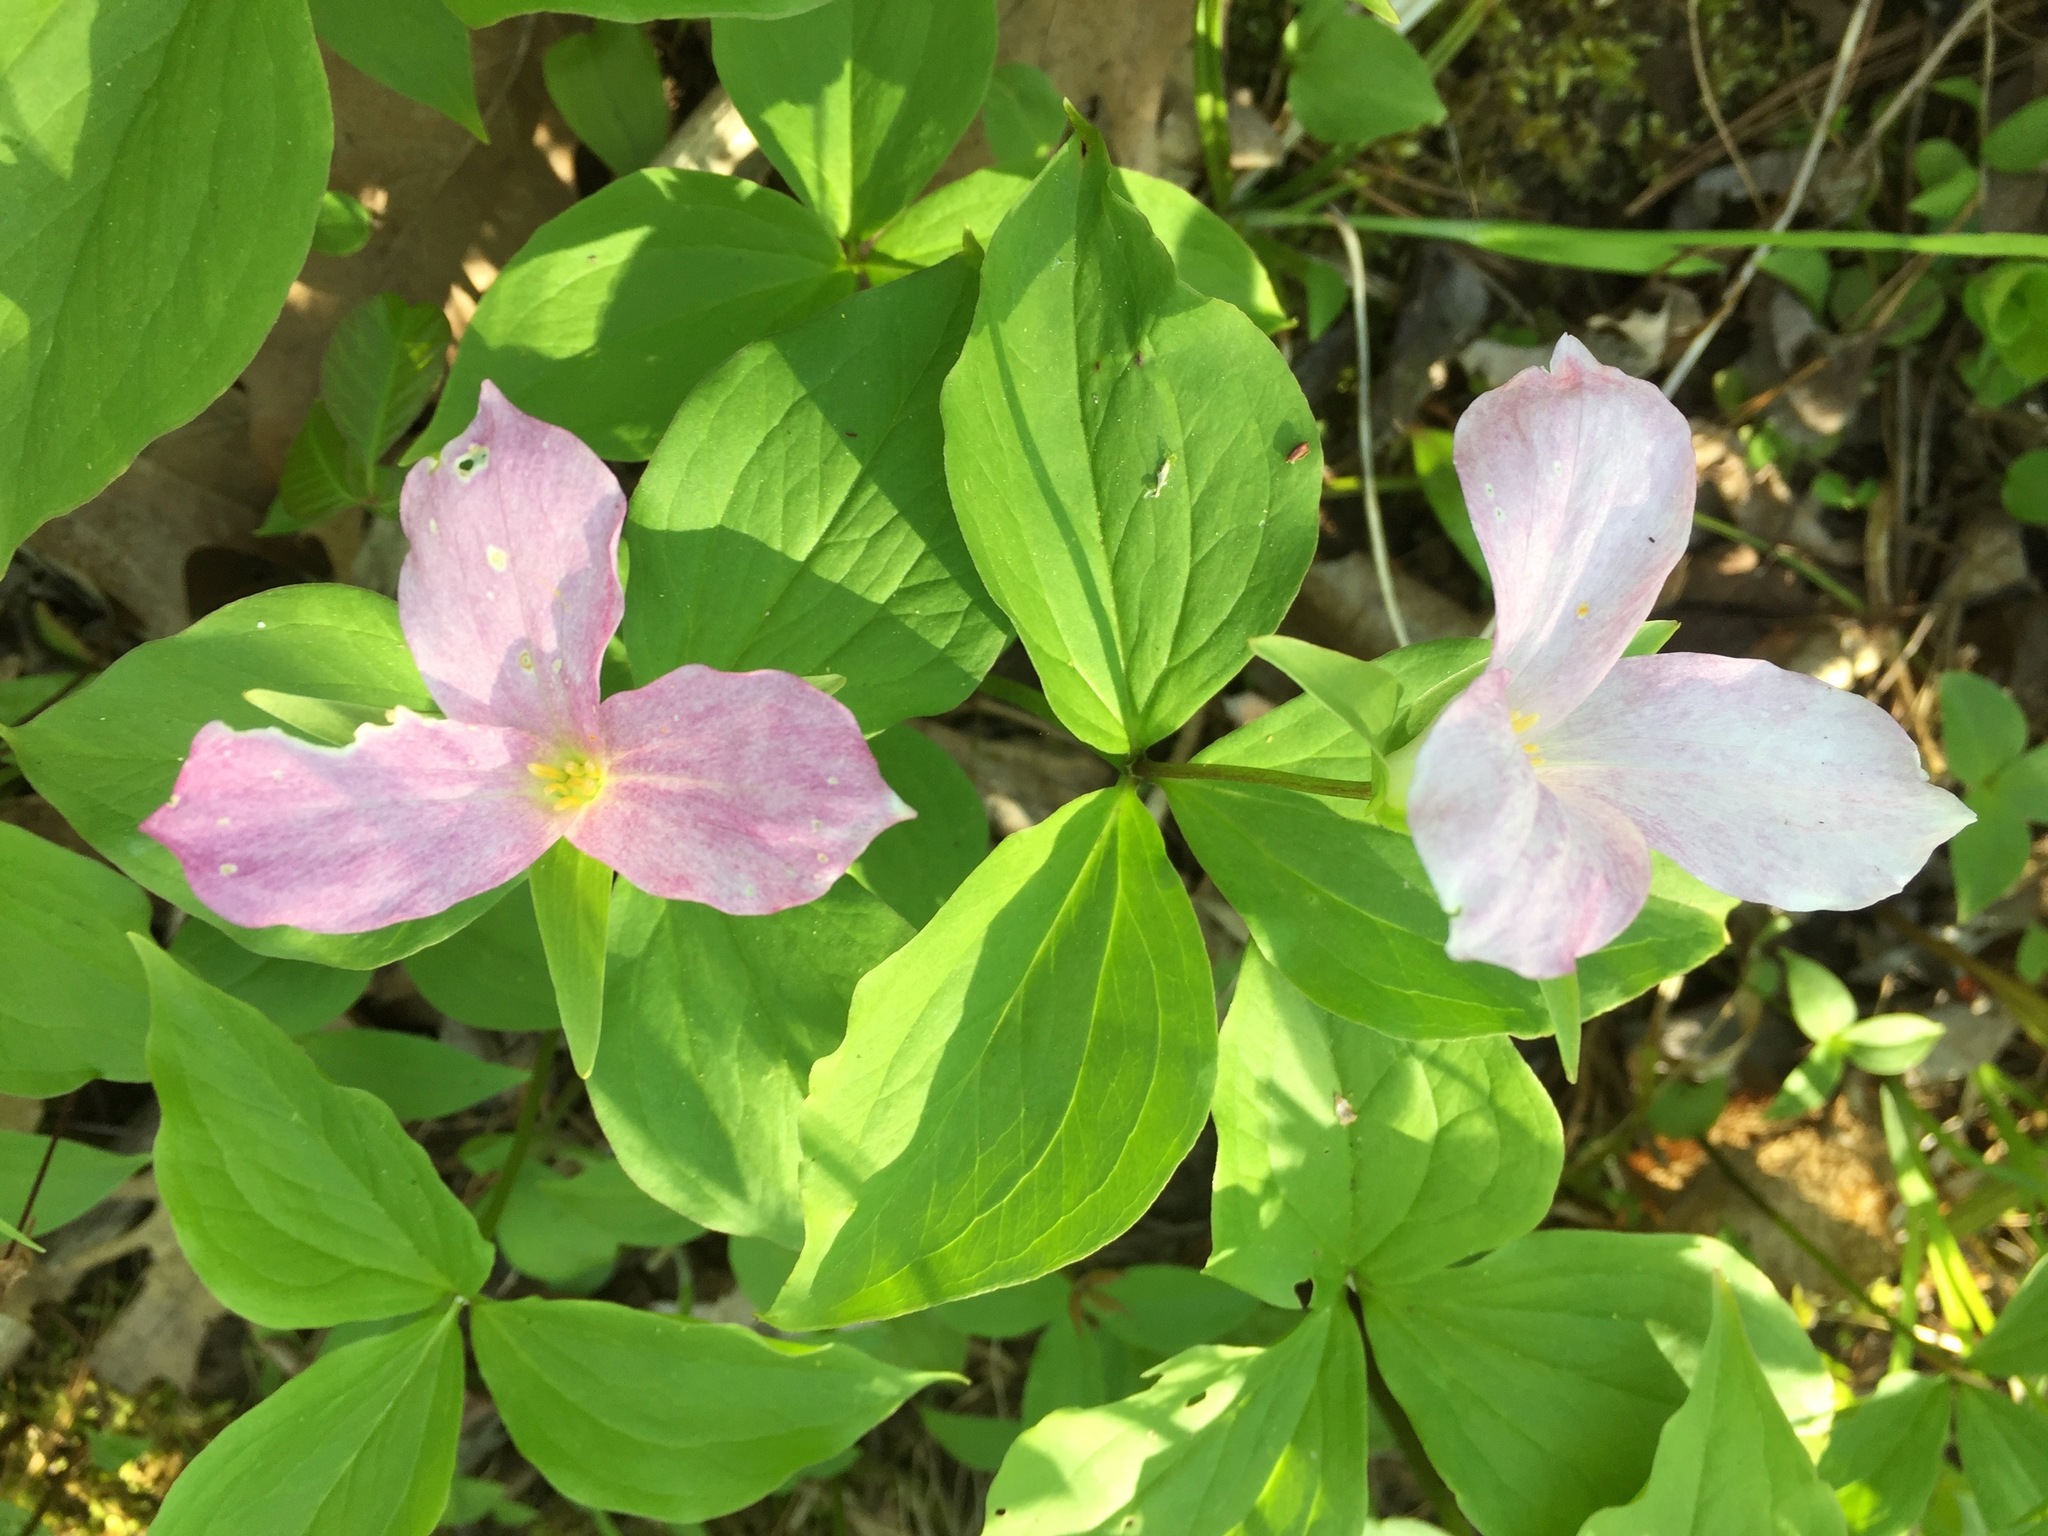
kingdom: Plantae
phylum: Tracheophyta
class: Liliopsida
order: Liliales
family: Melanthiaceae
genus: Trillium
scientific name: Trillium grandiflorum
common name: Great white trillium
